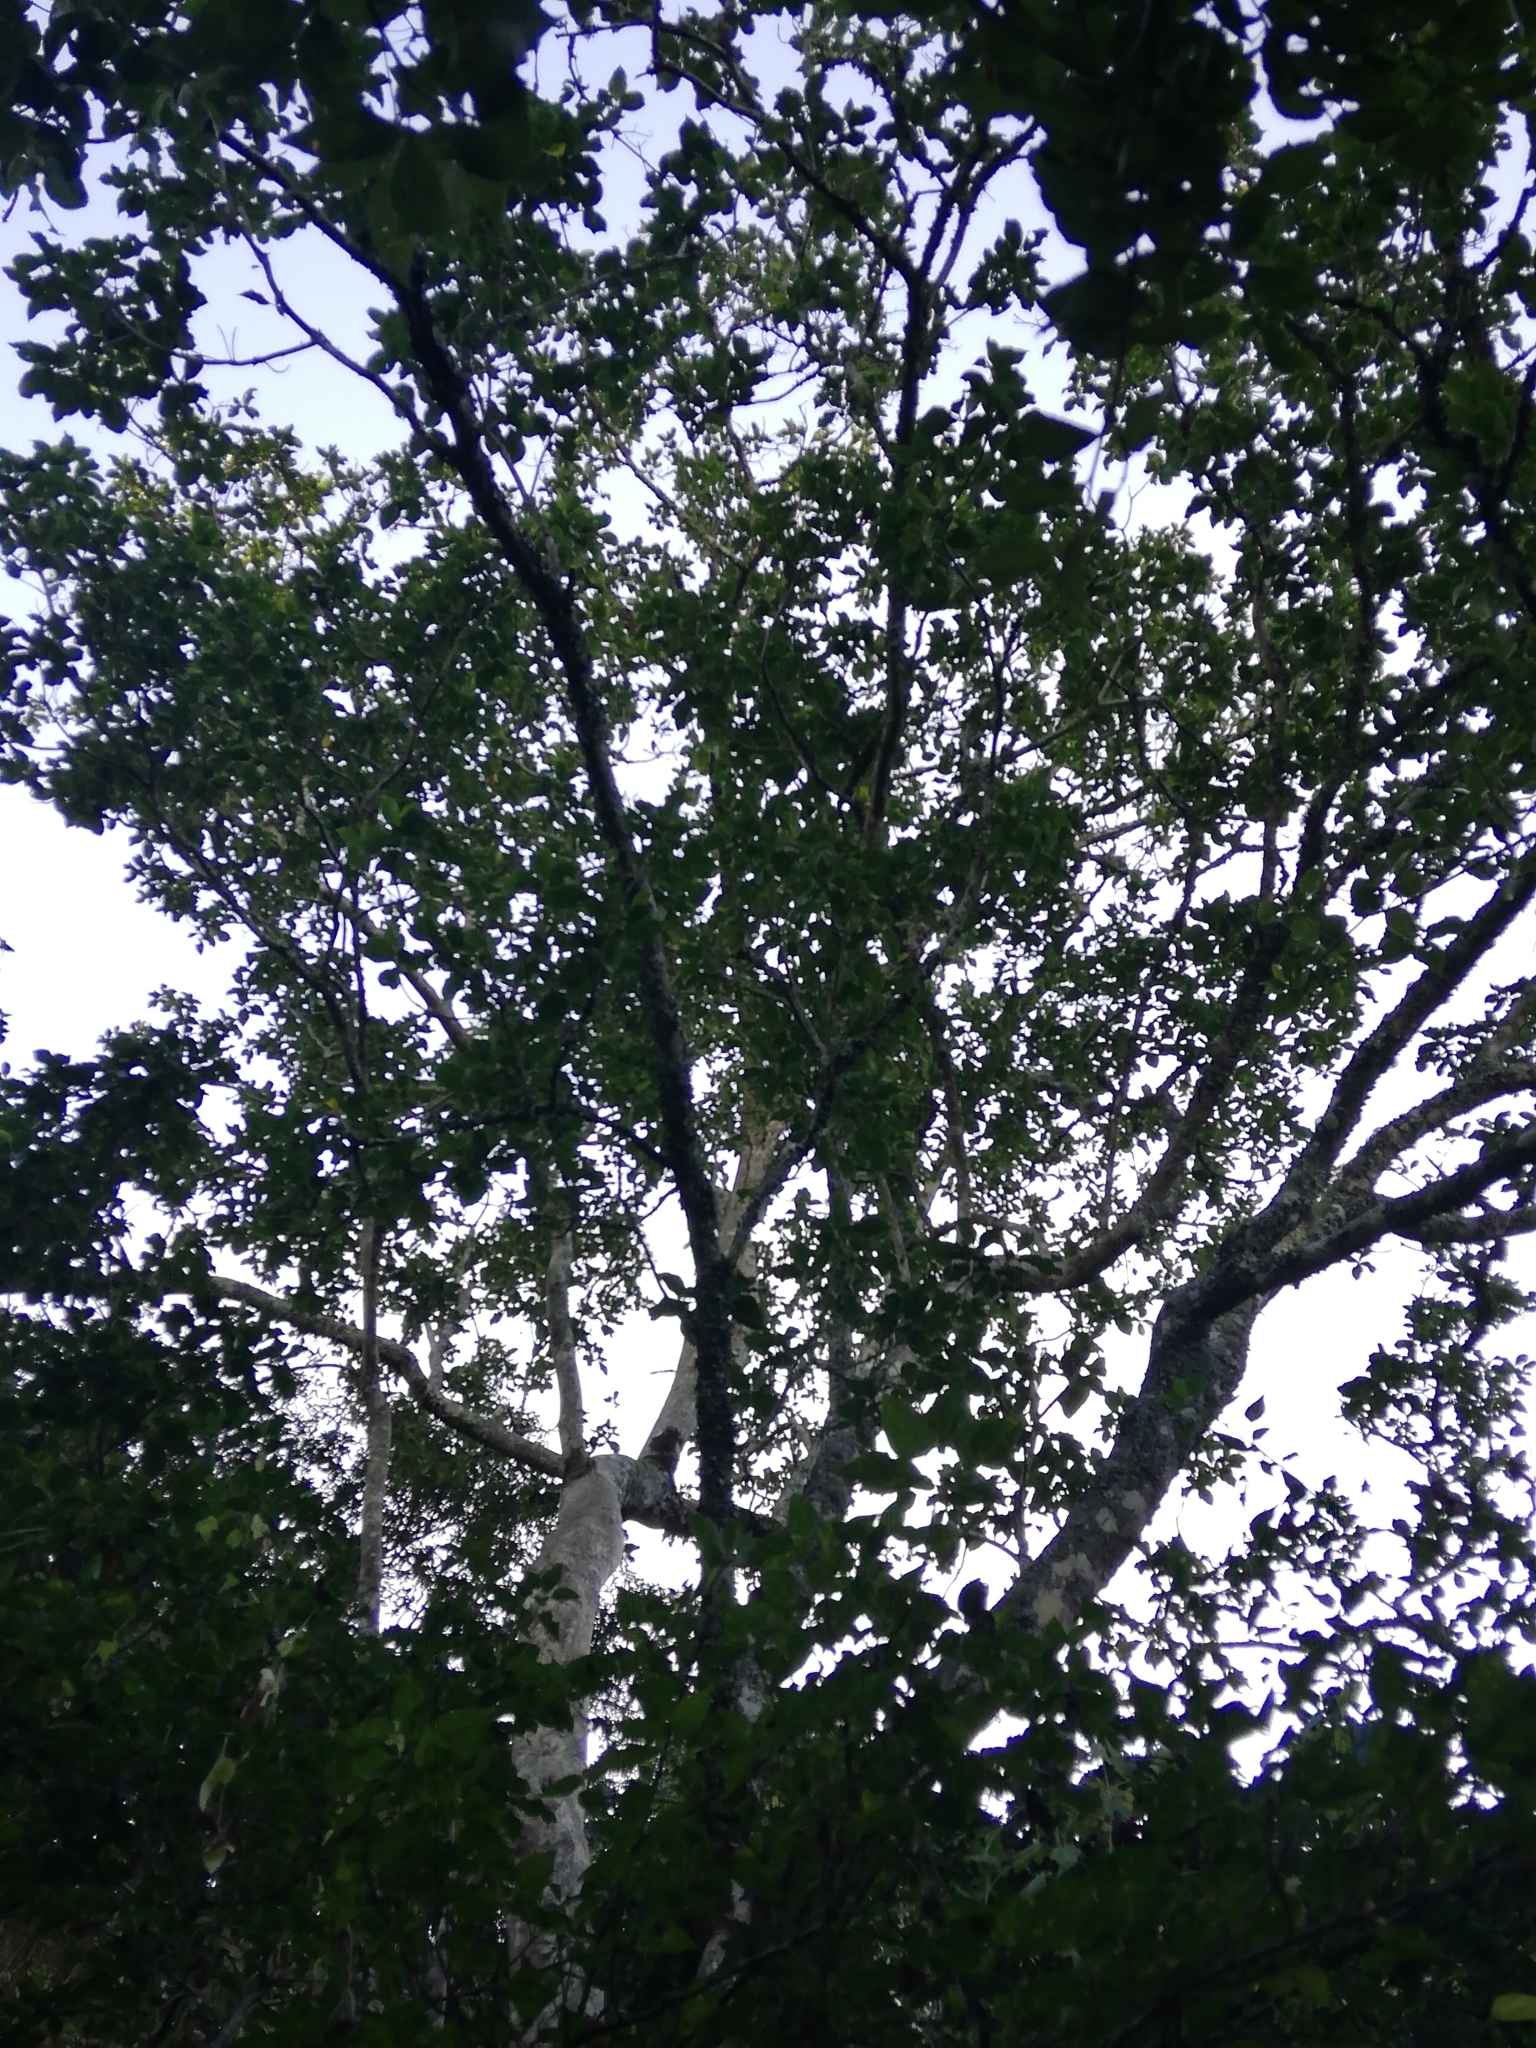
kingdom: Plantae
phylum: Tracheophyta
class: Magnoliopsida
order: Sapindales
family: Rutaceae
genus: Calodendrum
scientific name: Calodendrum capense
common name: Cape chestnut
